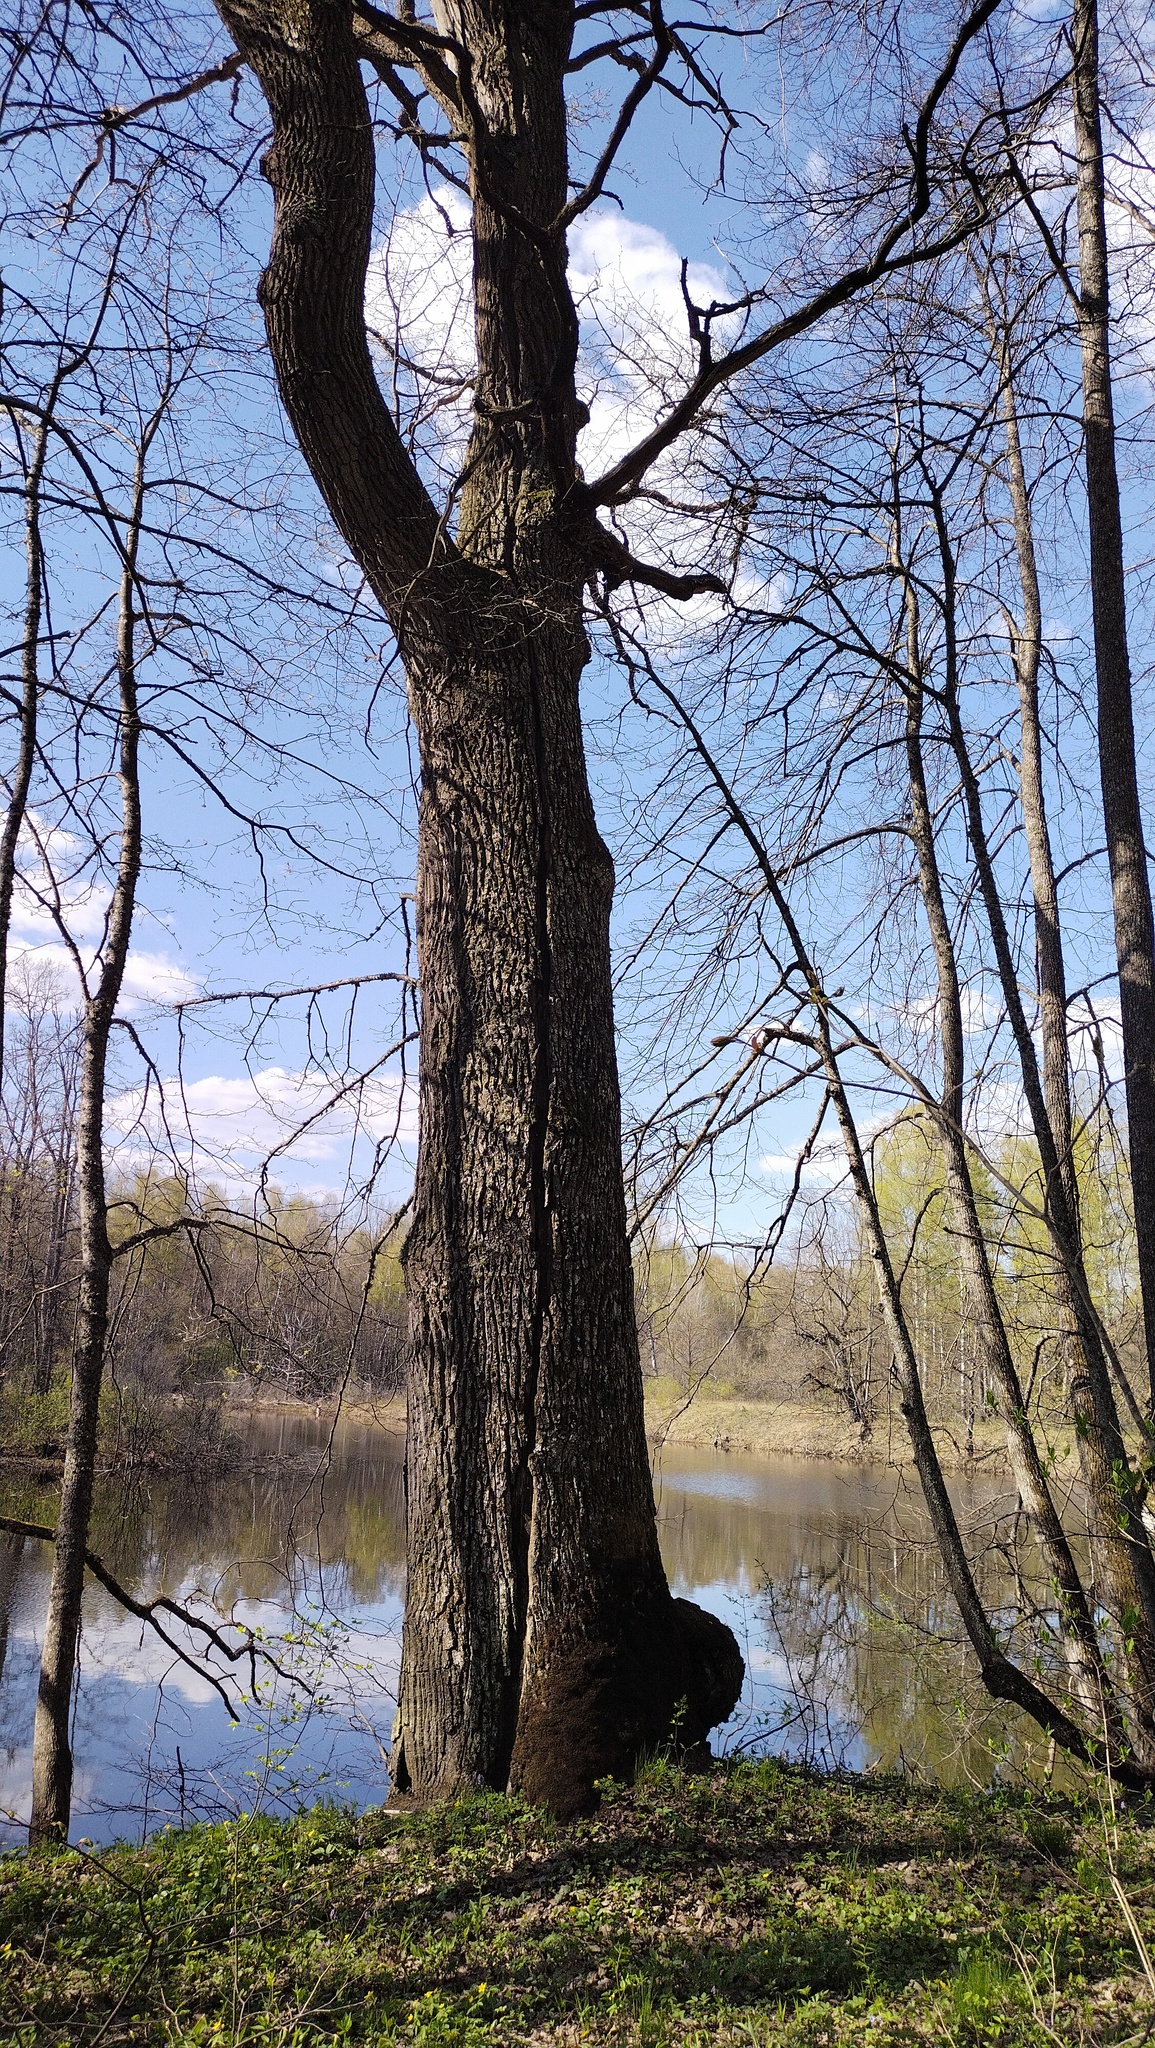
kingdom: Plantae
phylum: Tracheophyta
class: Magnoliopsida
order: Fagales
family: Fagaceae
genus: Quercus
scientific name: Quercus robur
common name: Pedunculate oak
